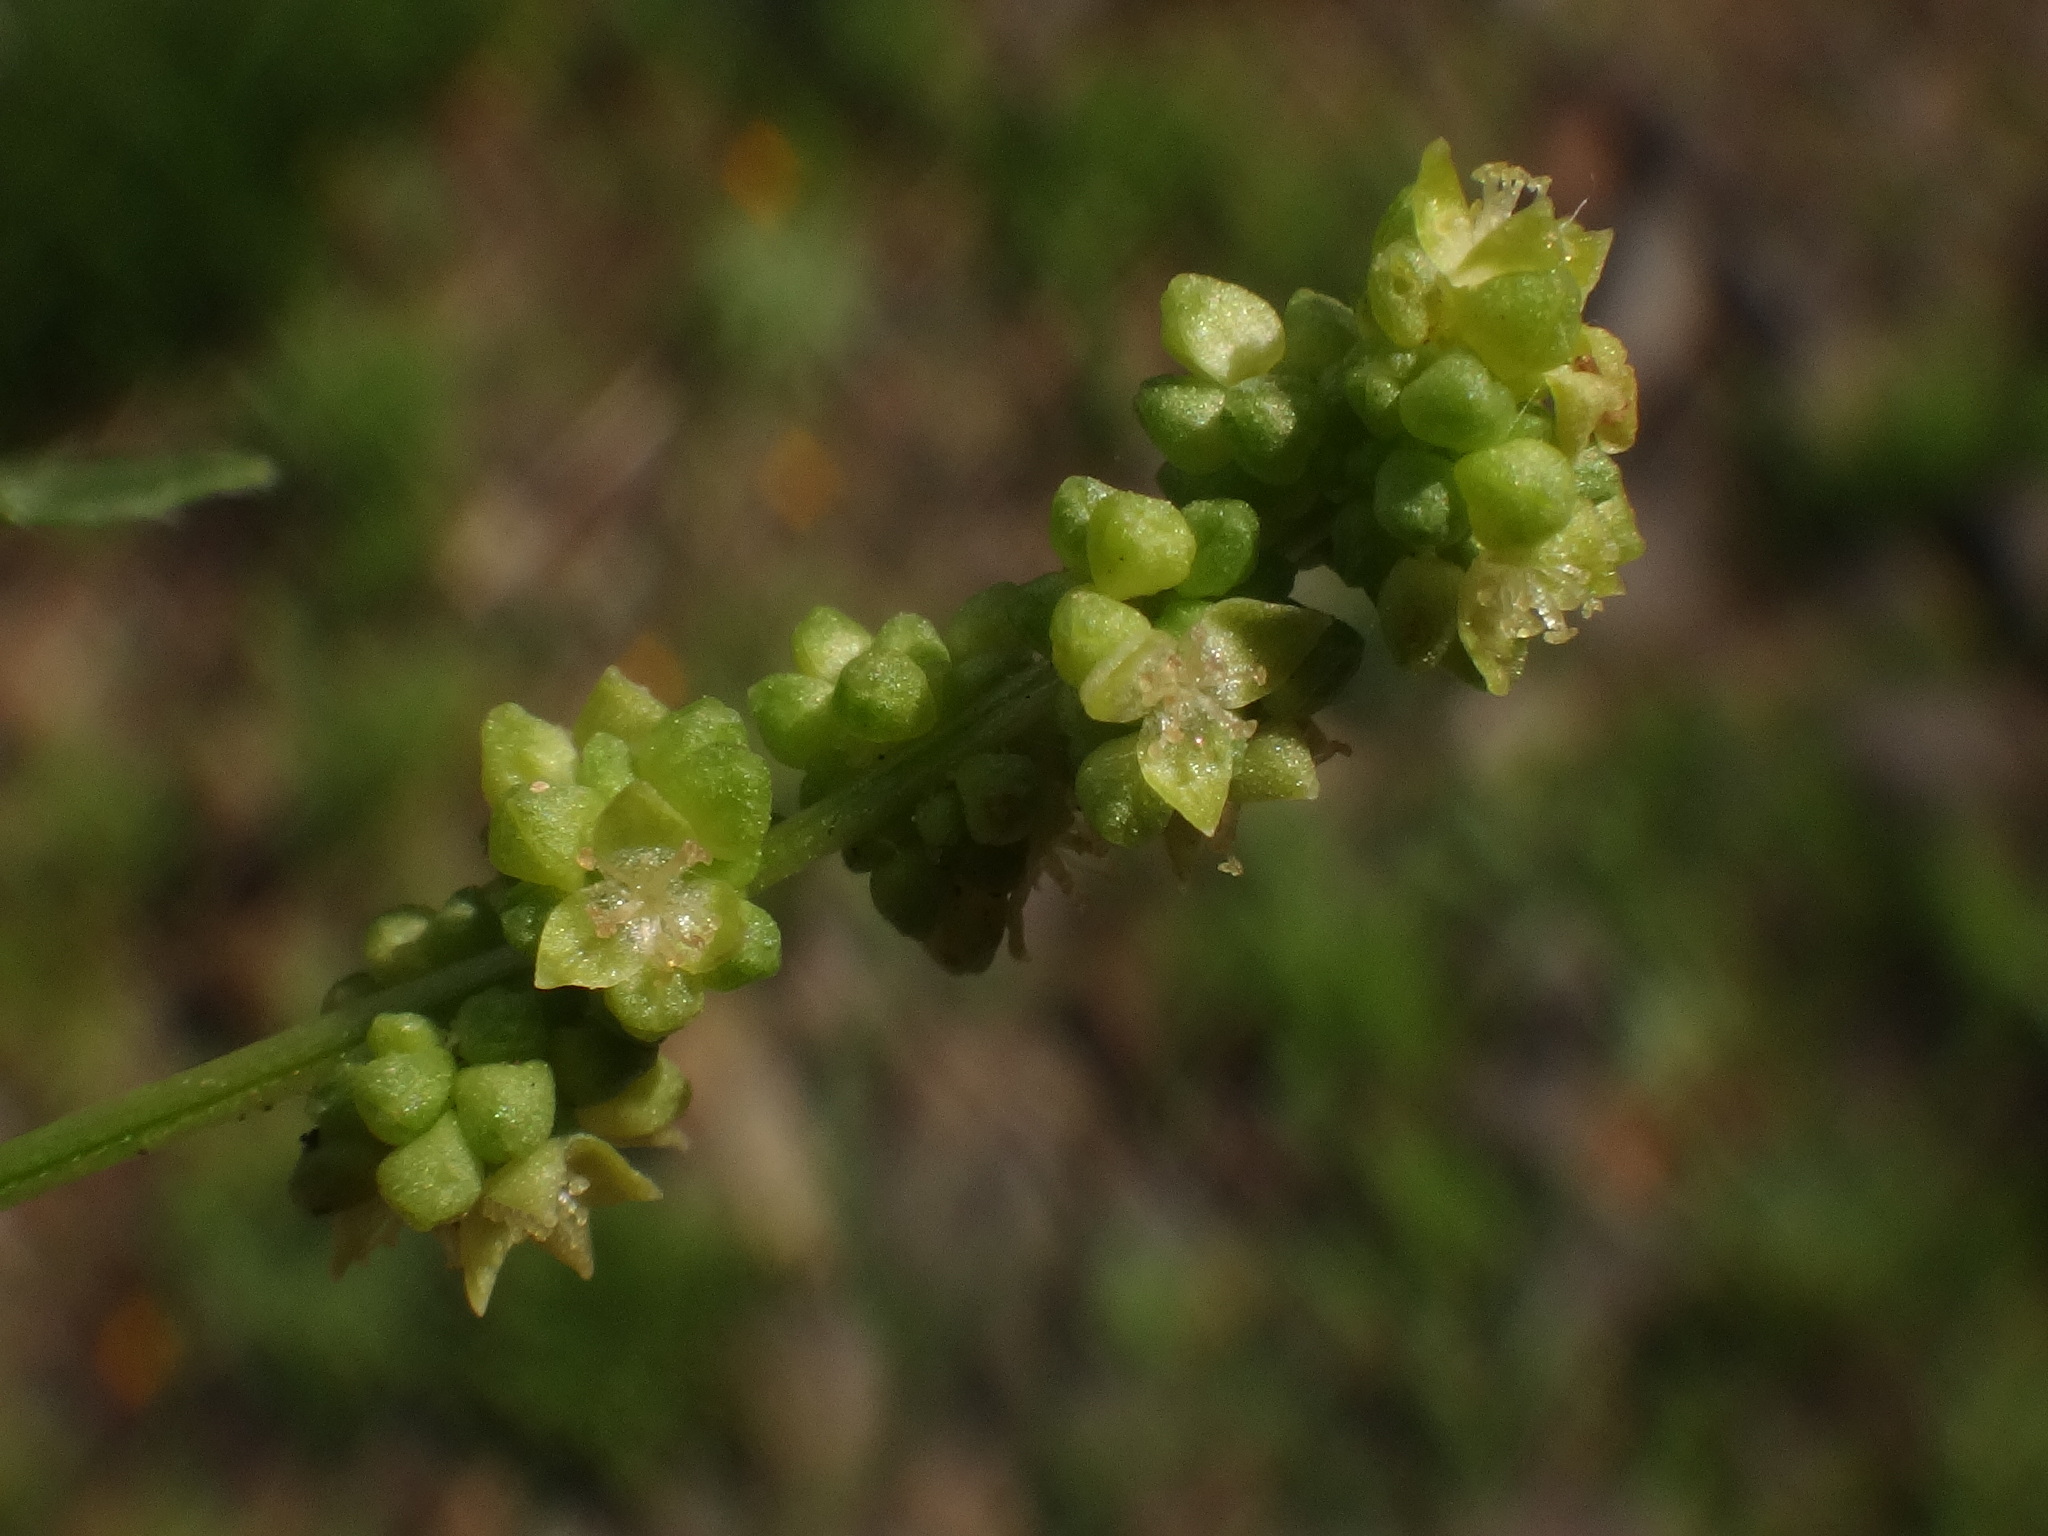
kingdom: Plantae
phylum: Tracheophyta
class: Magnoliopsida
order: Malpighiales
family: Euphorbiaceae
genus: Mercurialis
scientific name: Mercurialis annua
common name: Annual mercury
